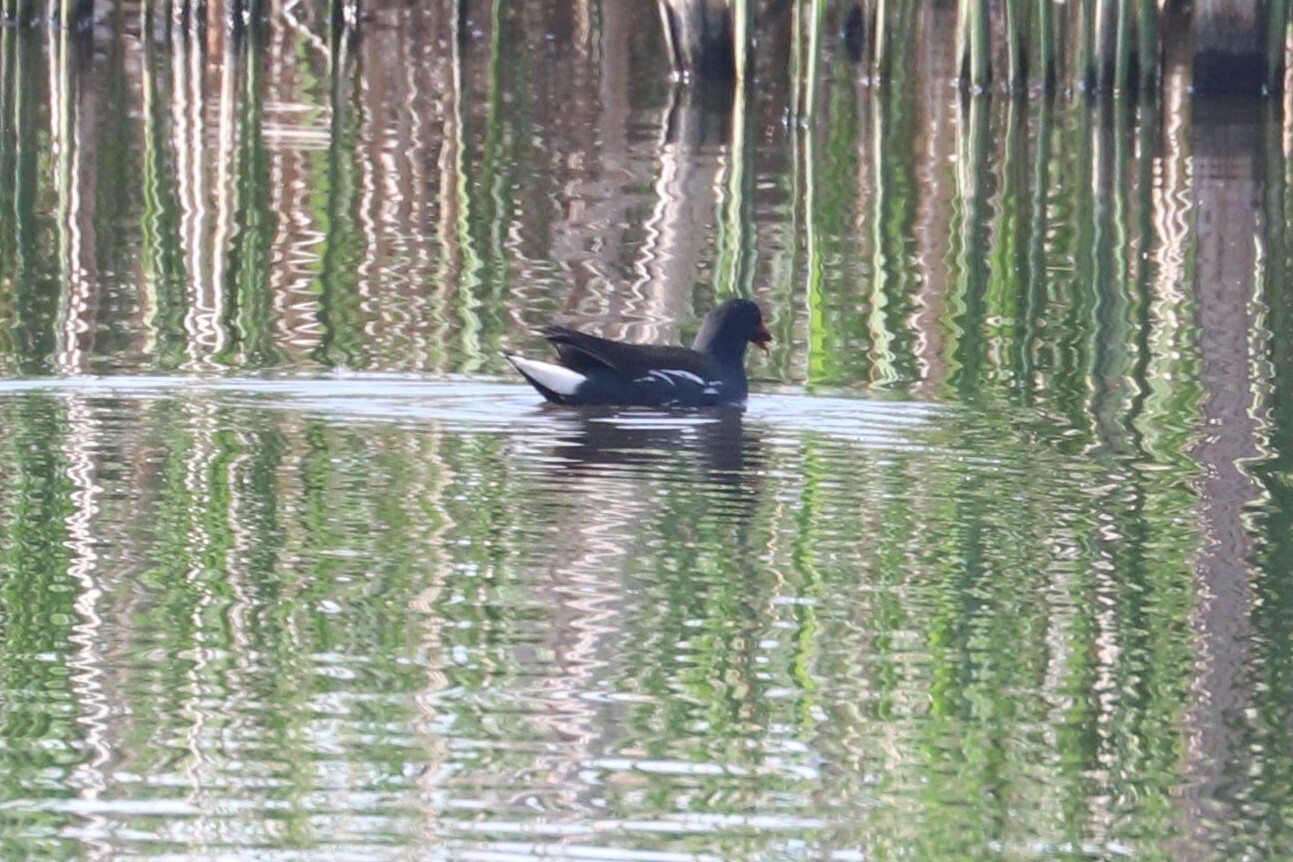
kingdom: Animalia
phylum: Chordata
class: Aves
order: Gruiformes
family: Rallidae
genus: Gallinula
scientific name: Gallinula chloropus
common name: Common moorhen
